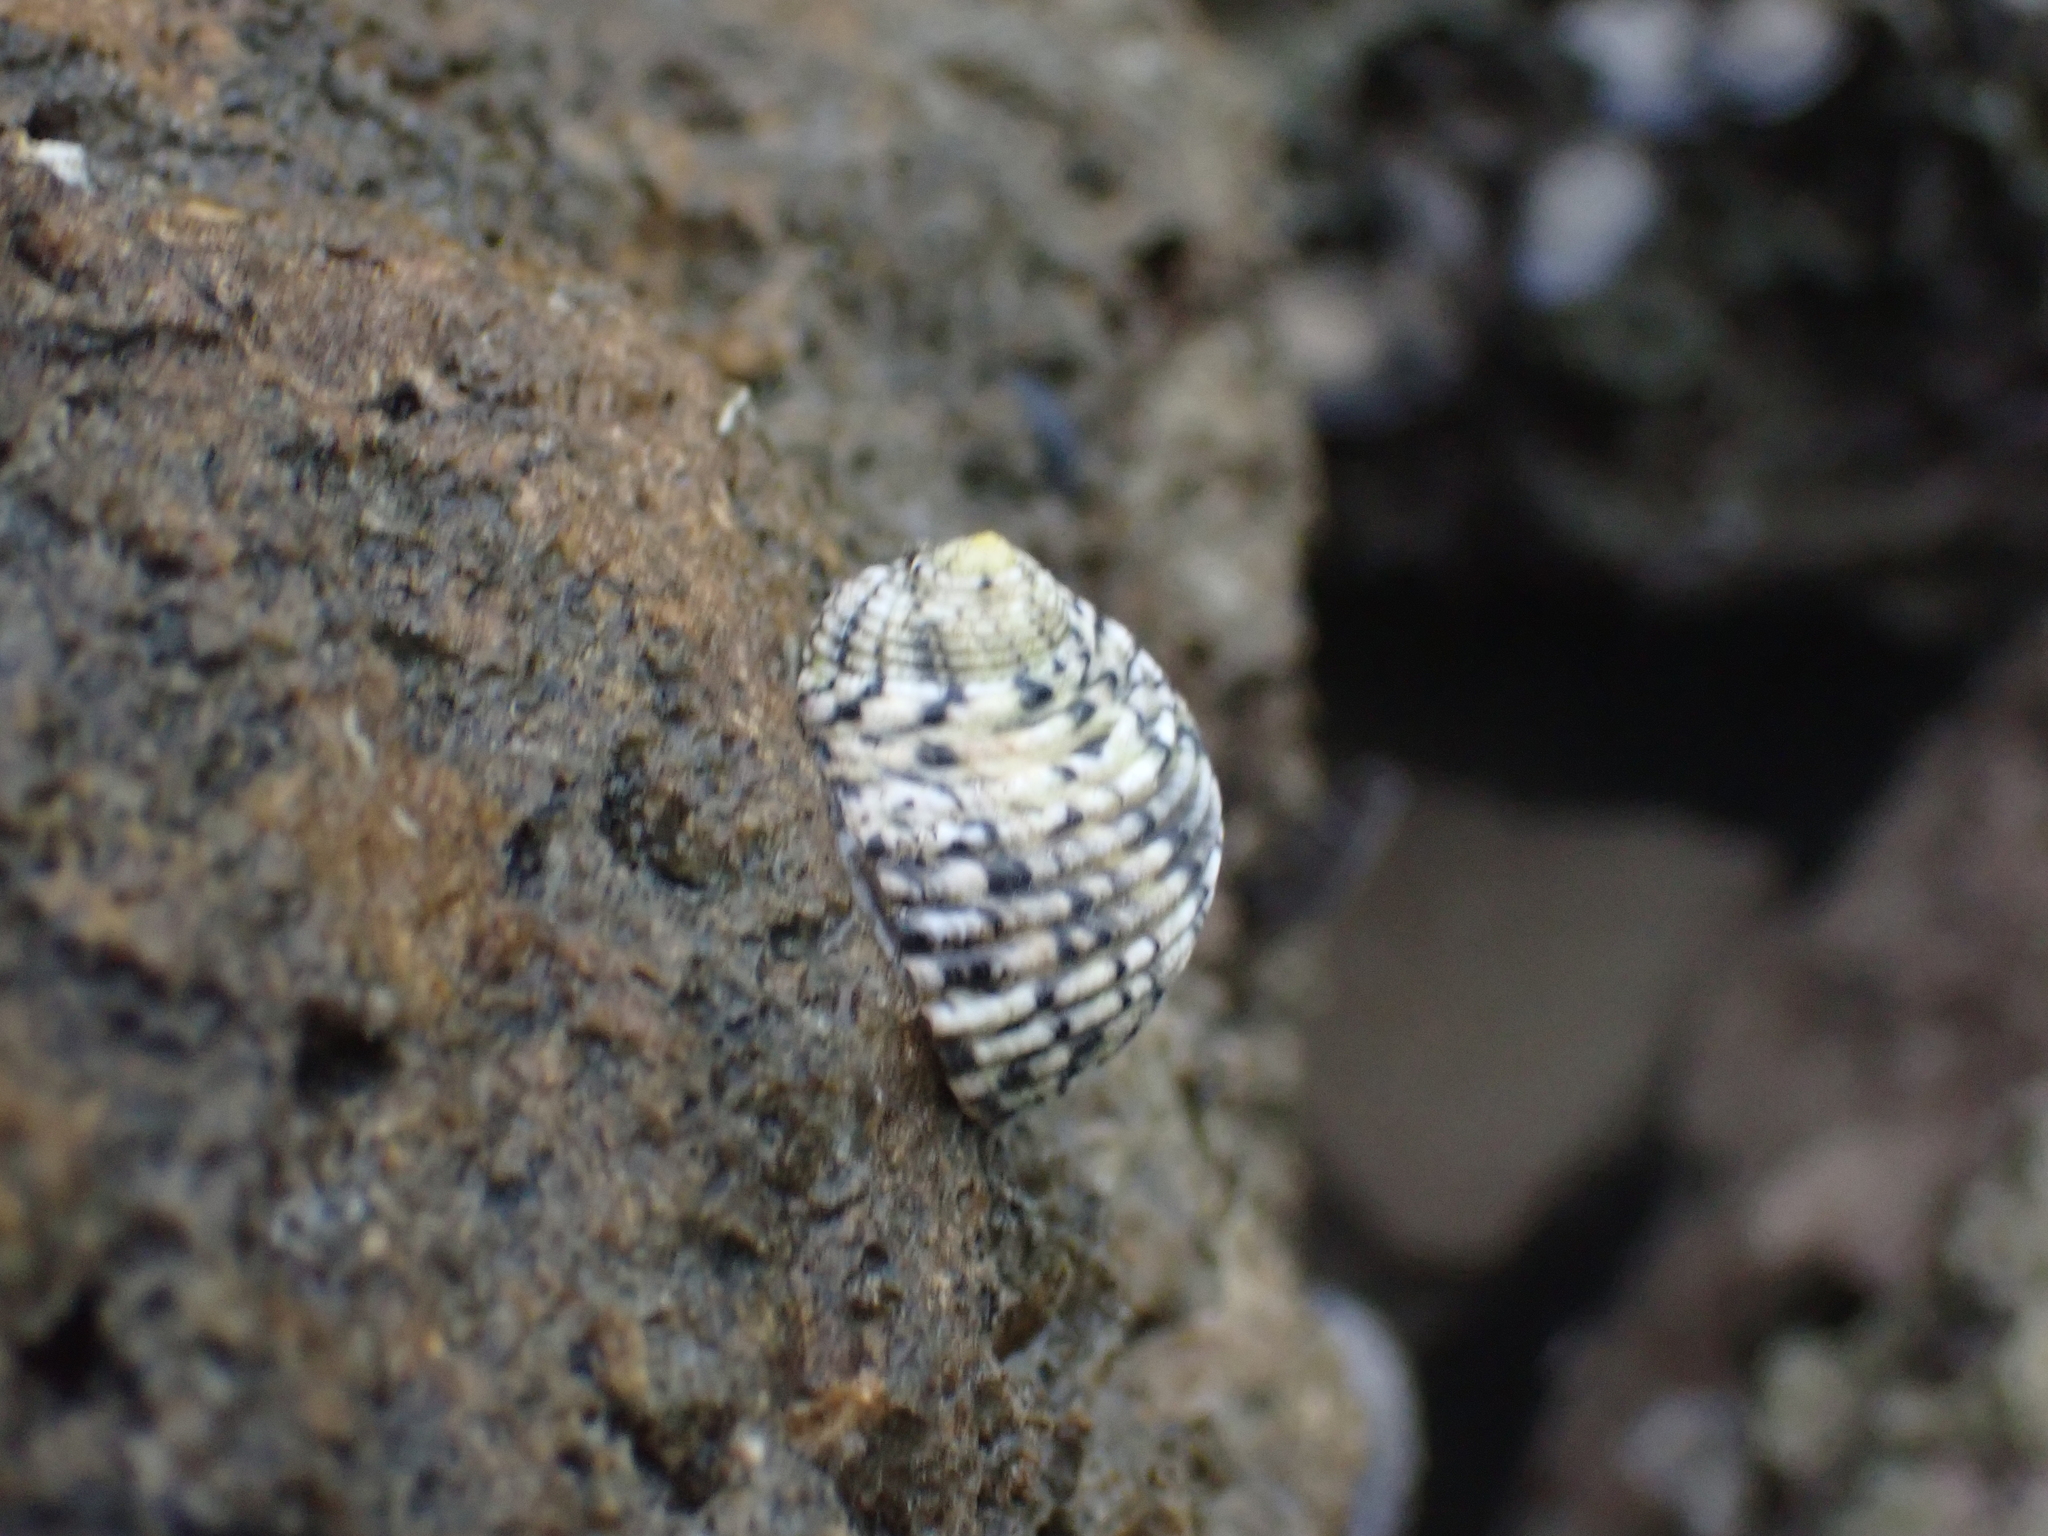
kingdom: Animalia
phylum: Mollusca
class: Gastropoda
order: Cycloneritida
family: Neritidae
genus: Nerita
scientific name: Nerita versicolor
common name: Four-tooth nerite
